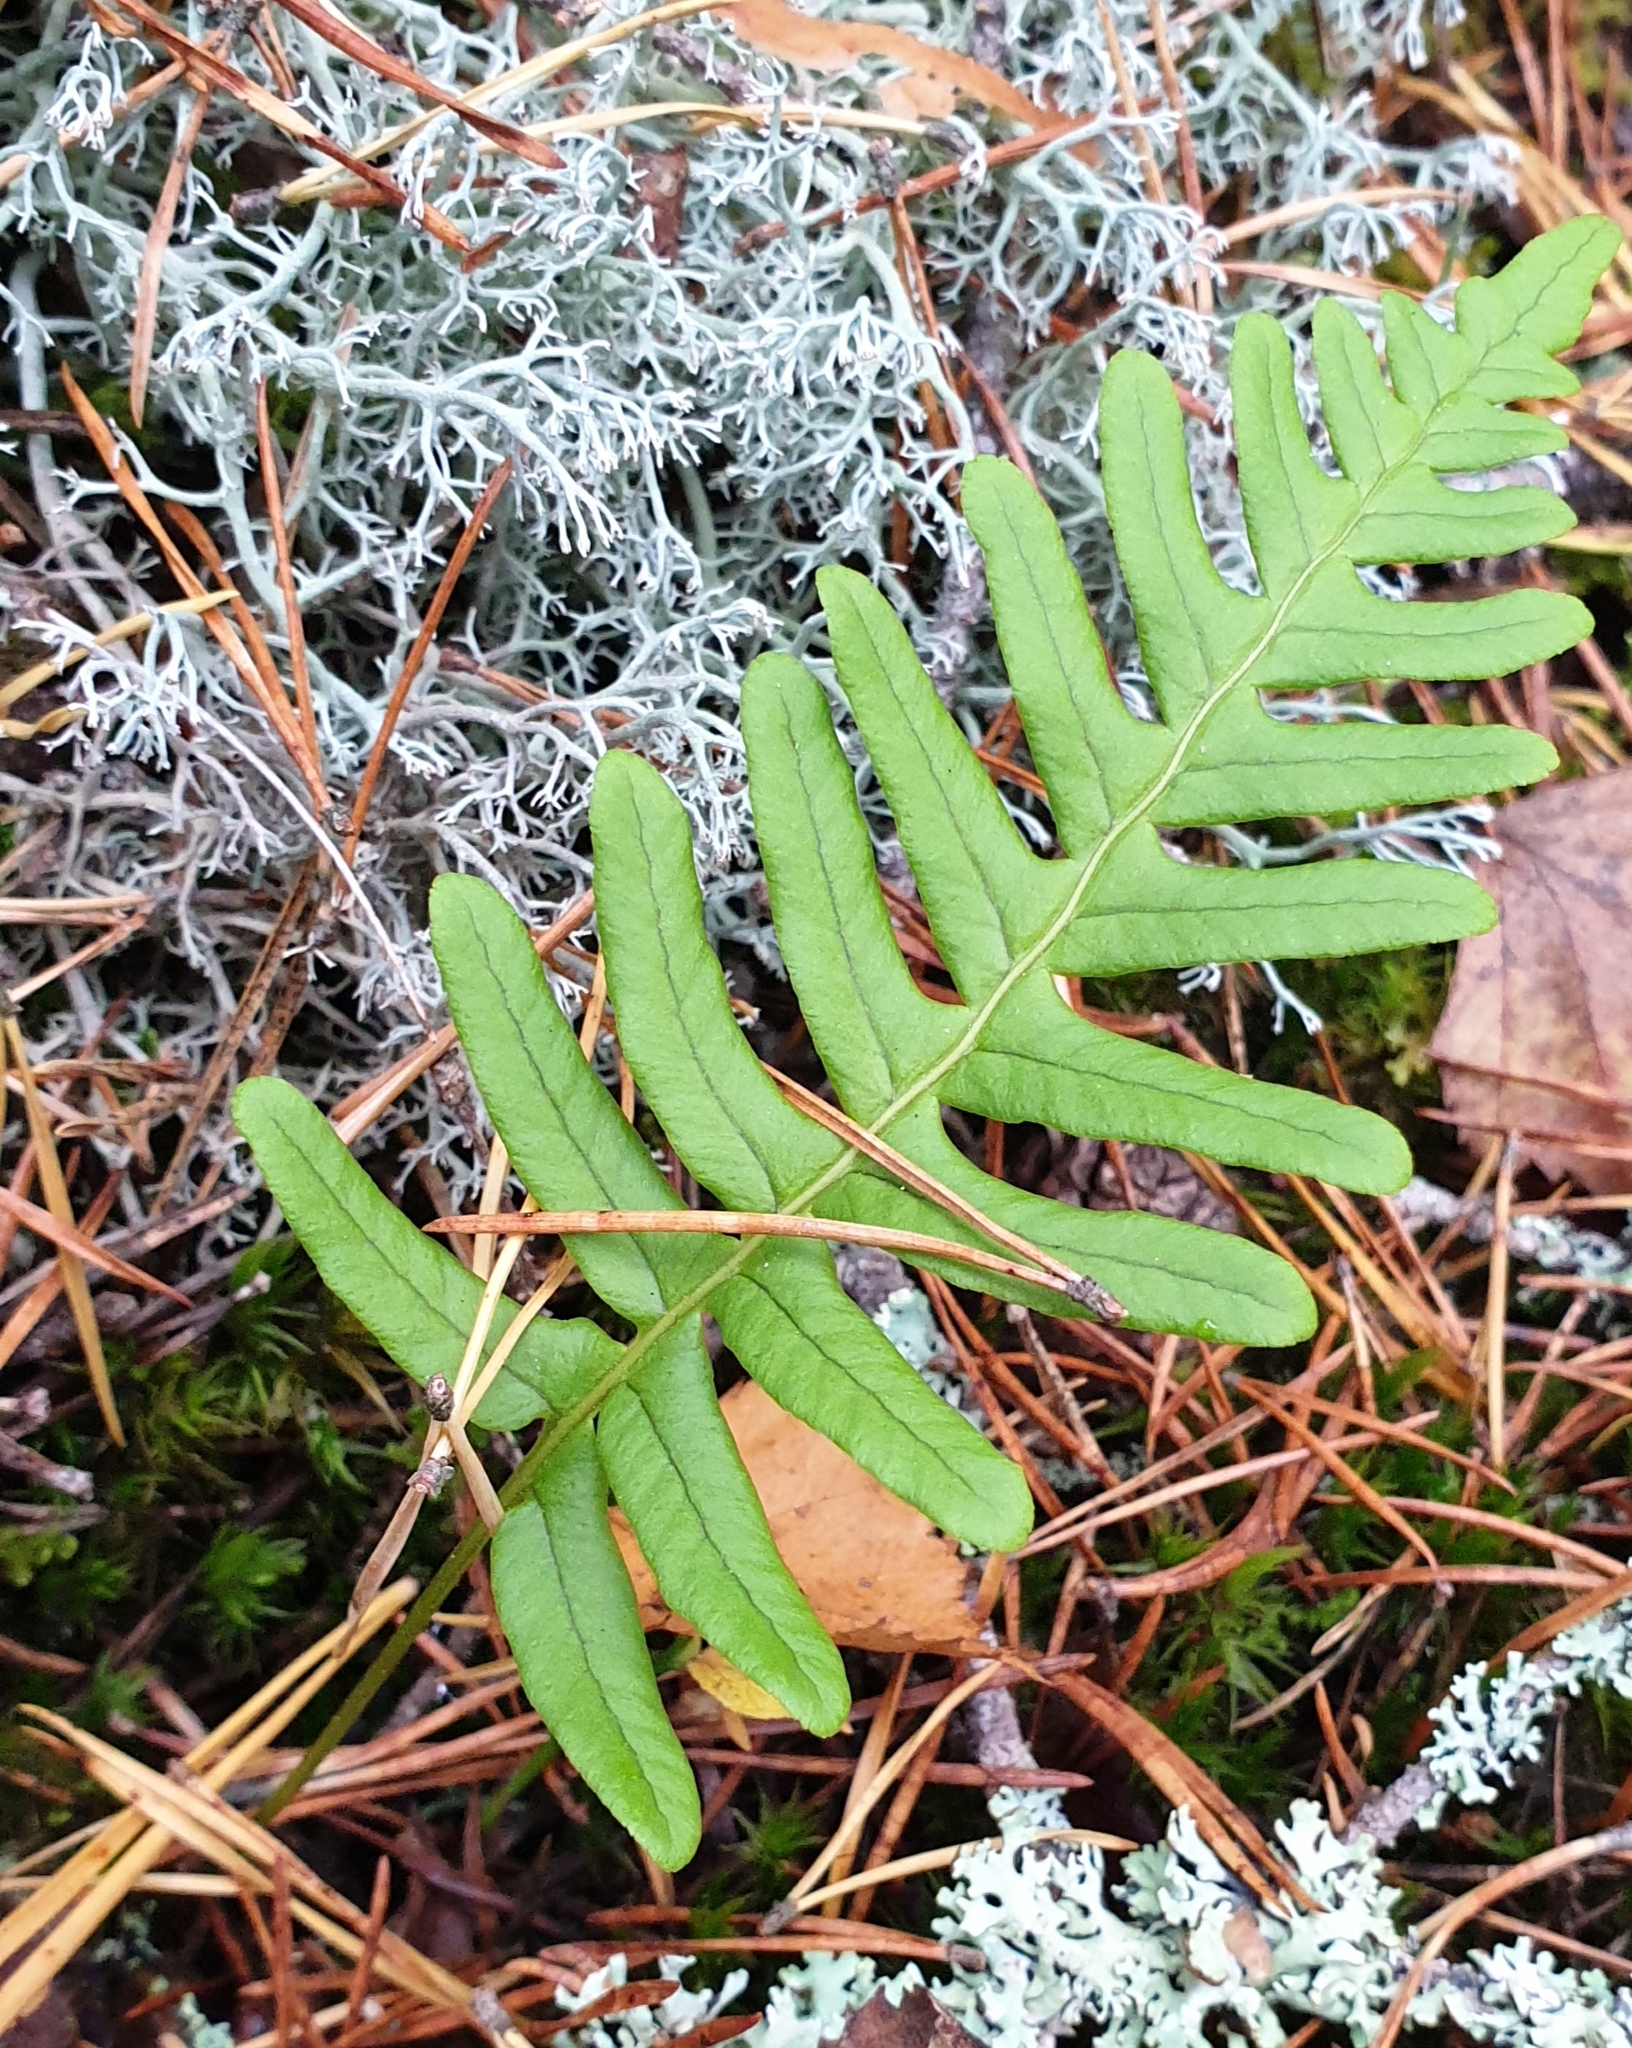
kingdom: Plantae
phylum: Tracheophyta
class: Polypodiopsida
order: Polypodiales
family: Polypodiaceae
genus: Polypodium
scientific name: Polypodium vulgare
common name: Common polypody
